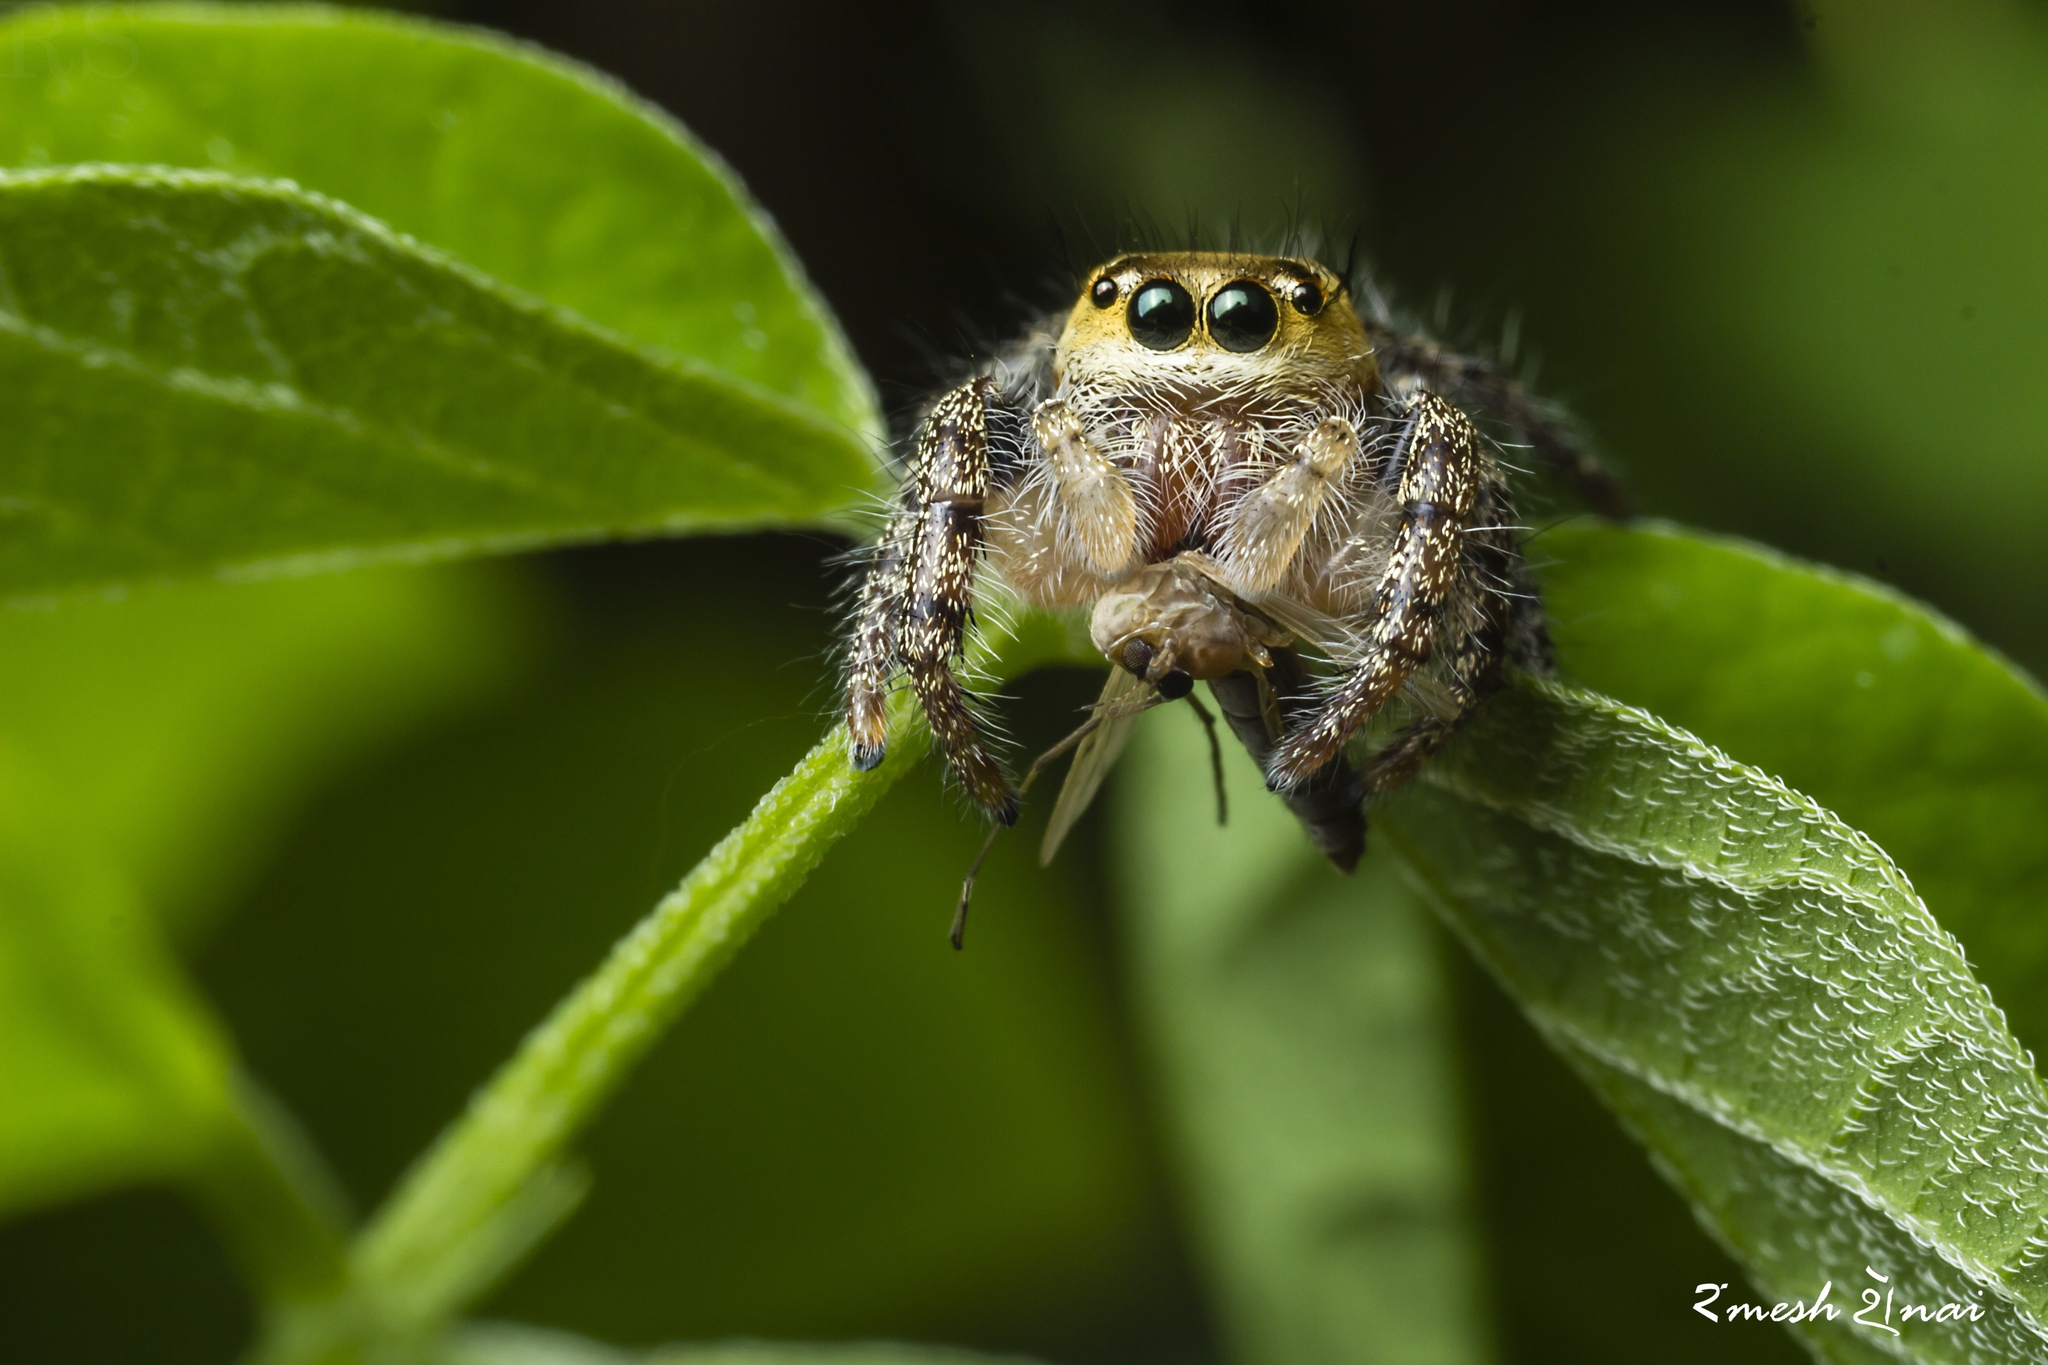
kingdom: Animalia
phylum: Arthropoda
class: Arachnida
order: Araneae
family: Salticidae
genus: Hyllus
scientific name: Hyllus semicupreus
